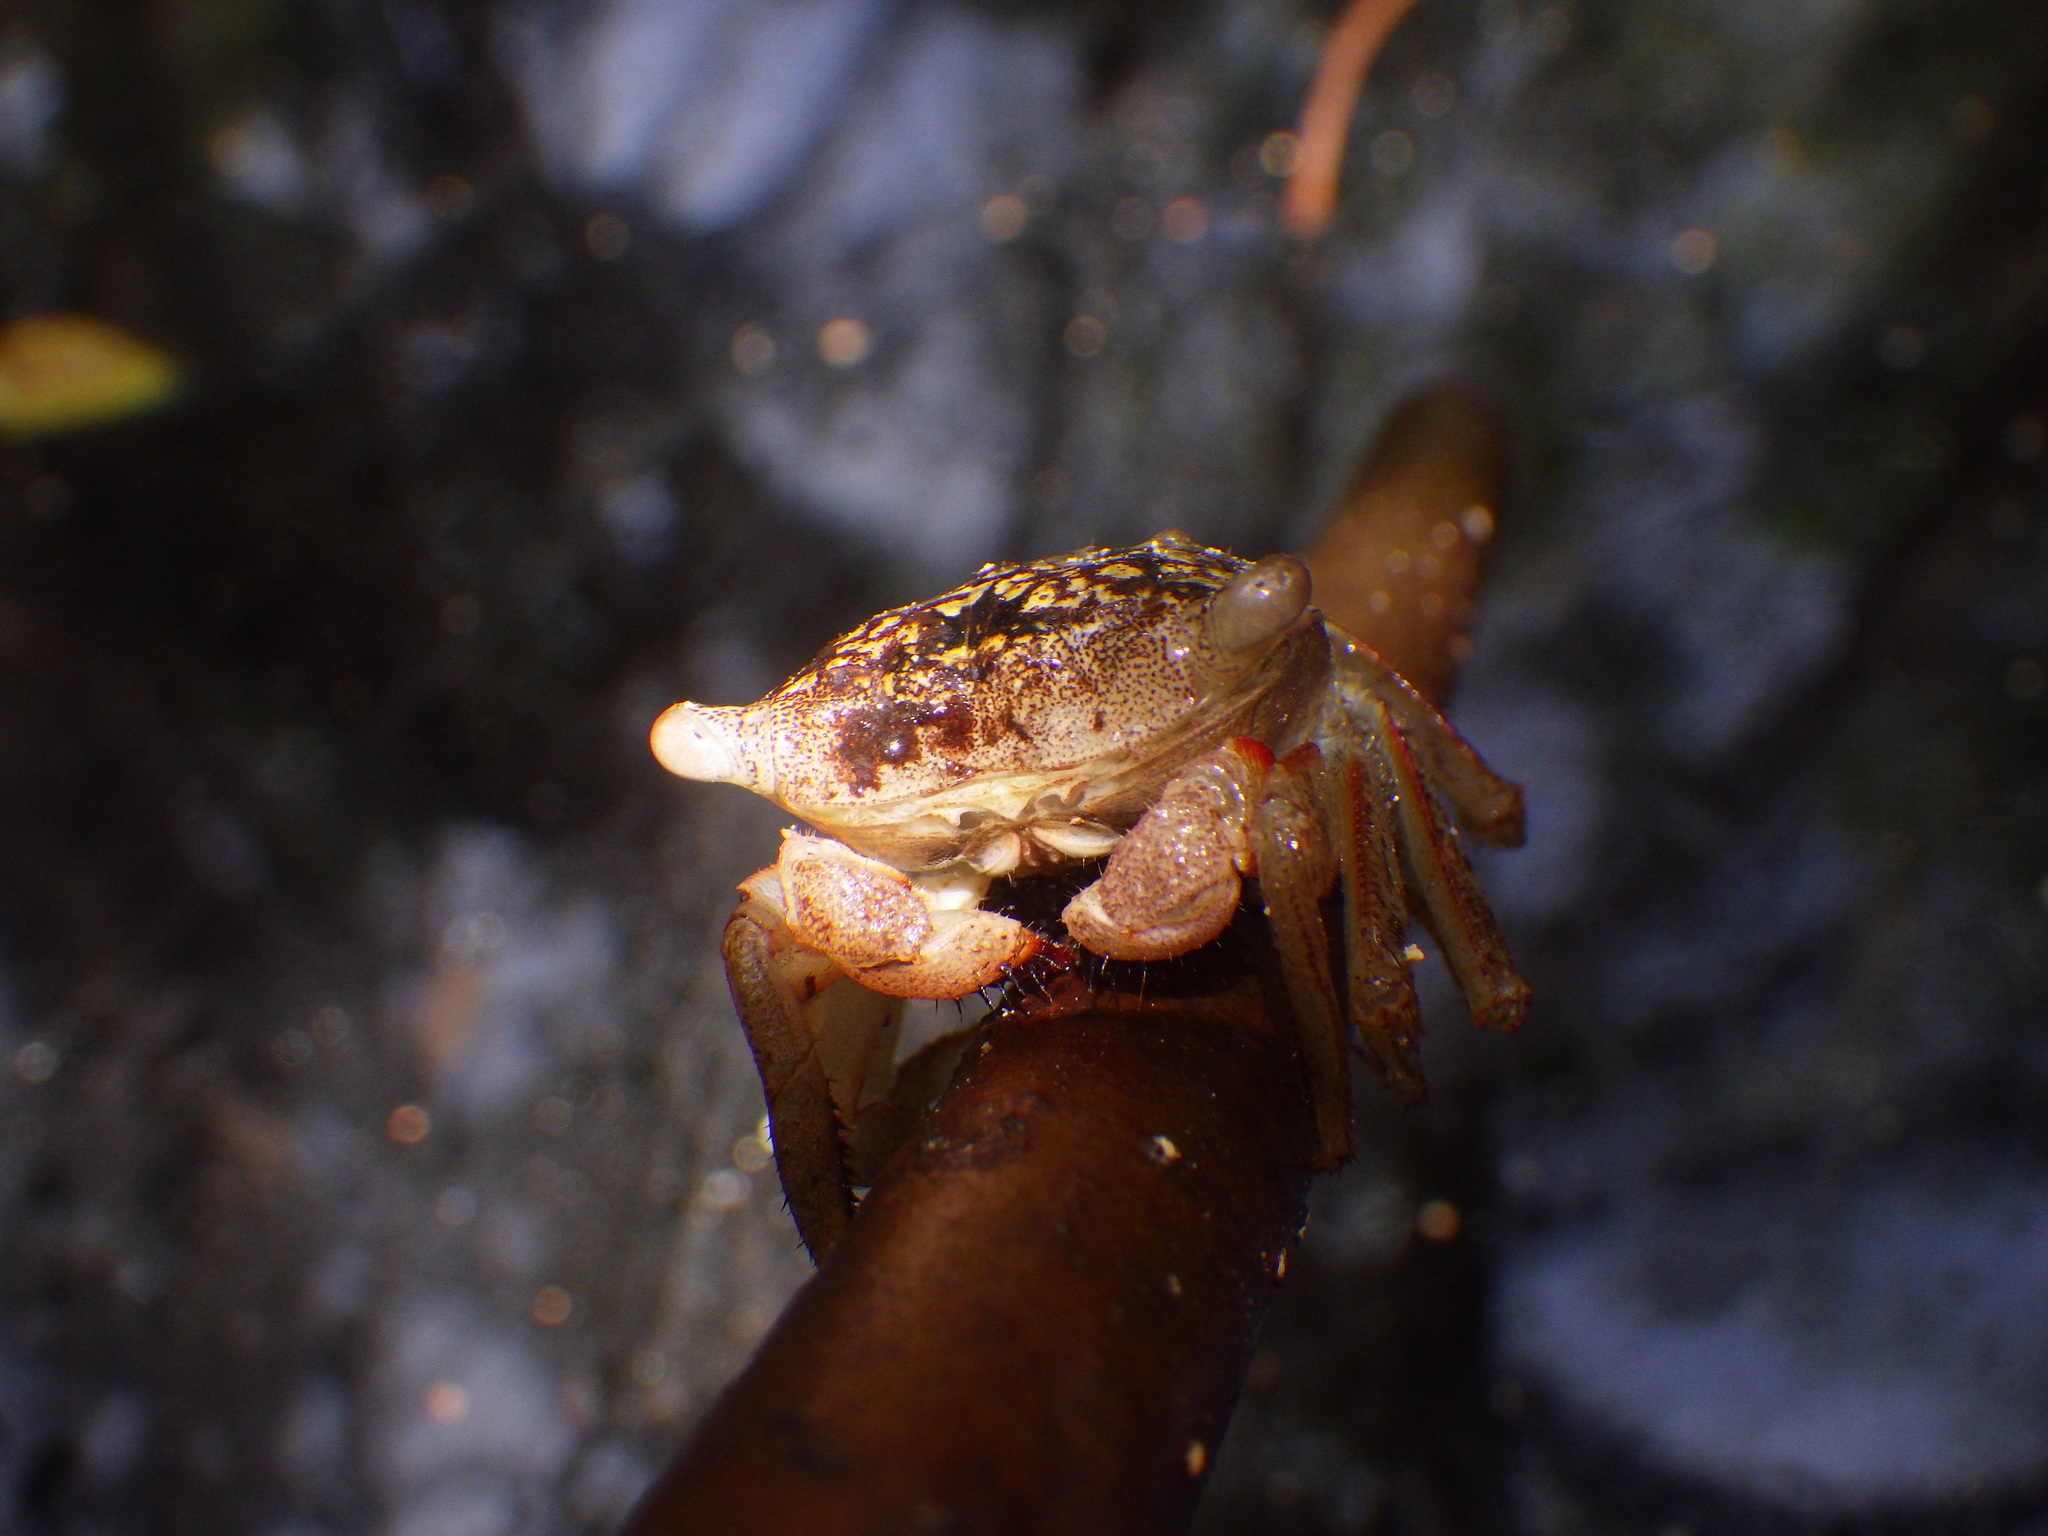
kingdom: Animalia
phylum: Arthropoda
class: Malacostraca
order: Decapoda
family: Sesarmidae
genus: Aratus
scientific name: Aratus pisonii
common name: Mangrove crab
